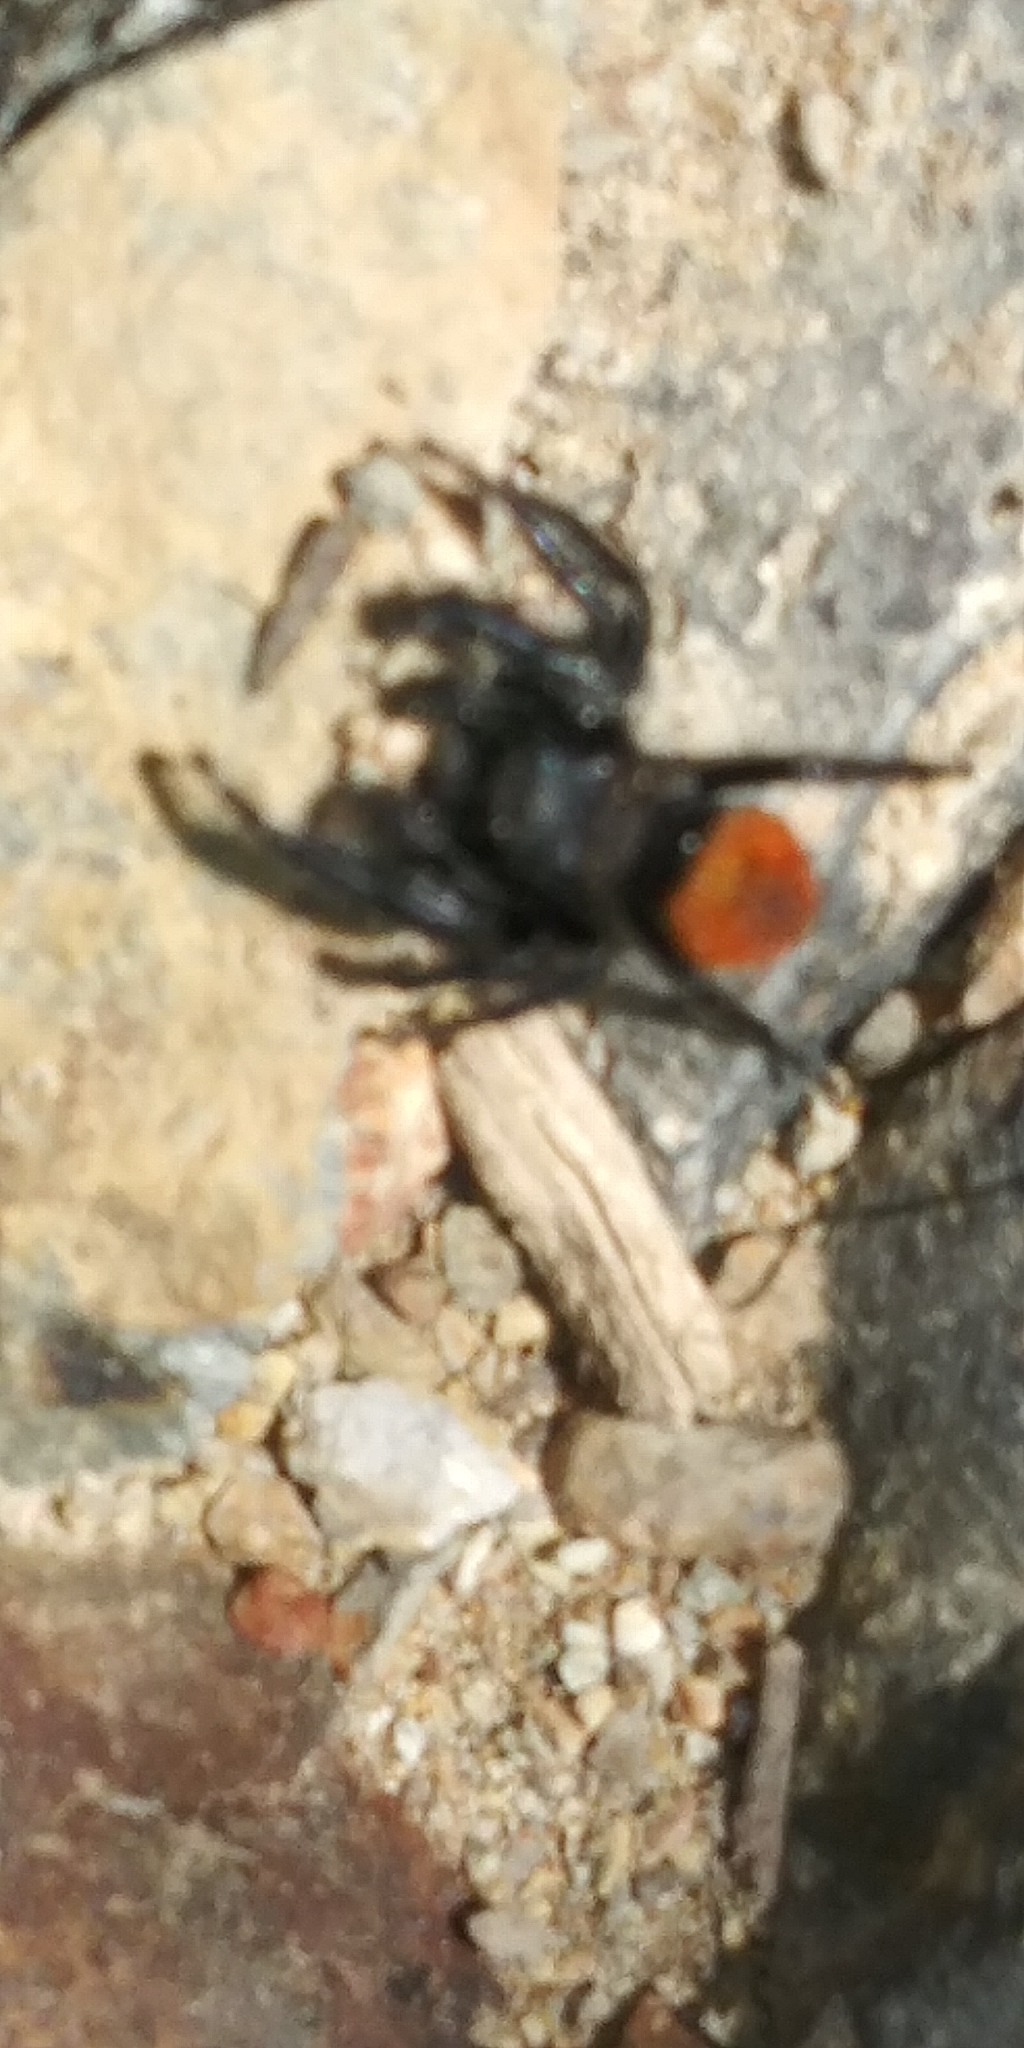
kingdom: Animalia
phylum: Arthropoda
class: Arachnida
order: Araneae
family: Salticidae
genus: Phidippus
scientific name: Phidippus johnsoni
